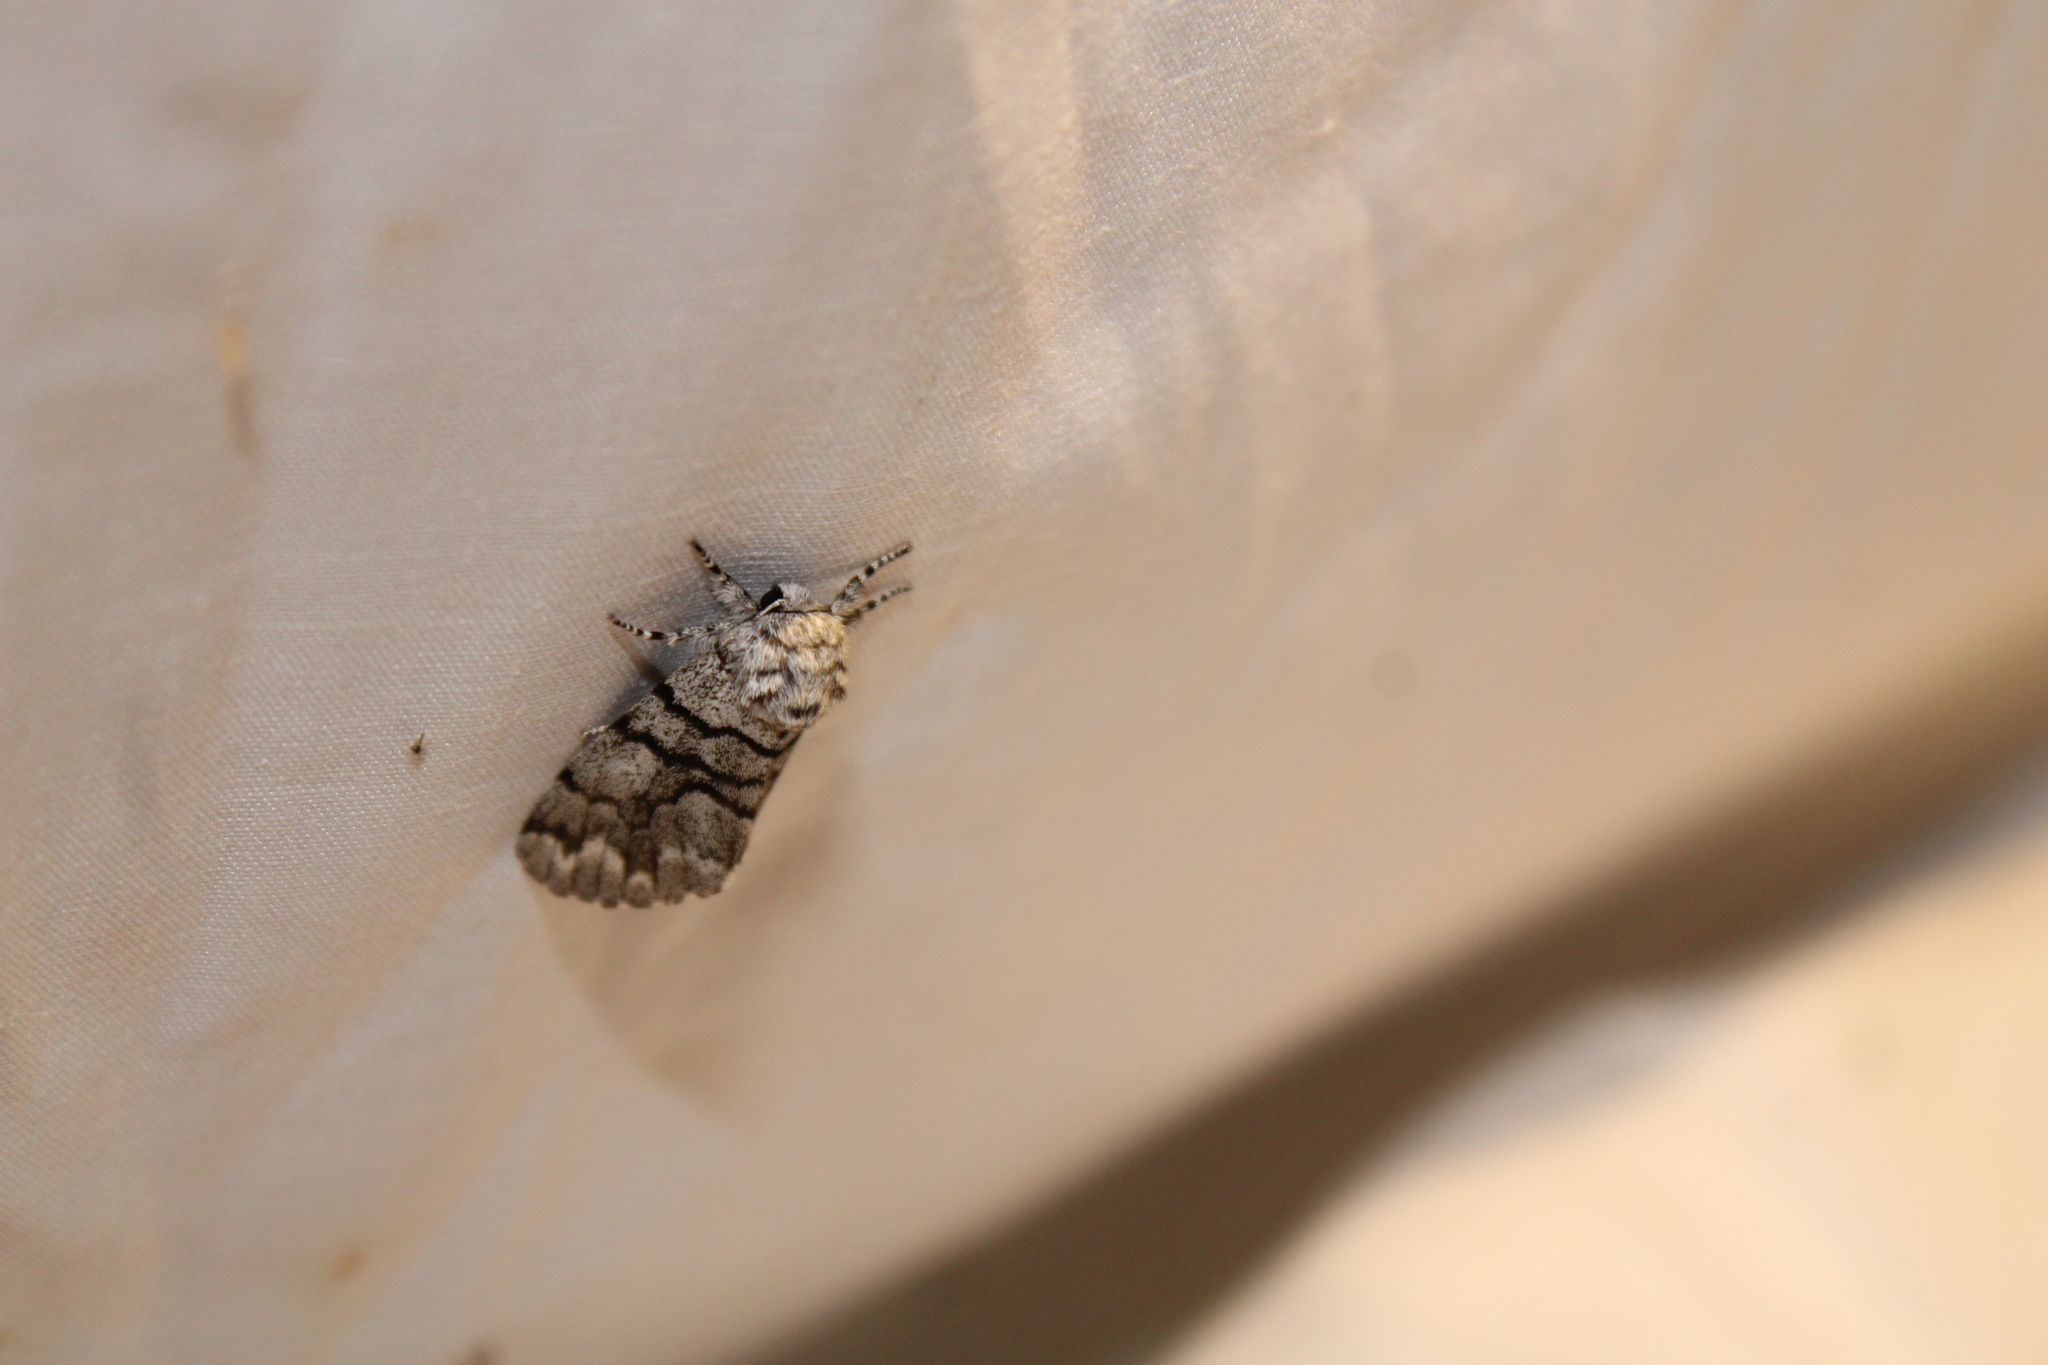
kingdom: Animalia
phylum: Arthropoda
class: Insecta
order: Lepidoptera
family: Noctuidae
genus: Panthea
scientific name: Panthea furcilla
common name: Eastern panthea moth
